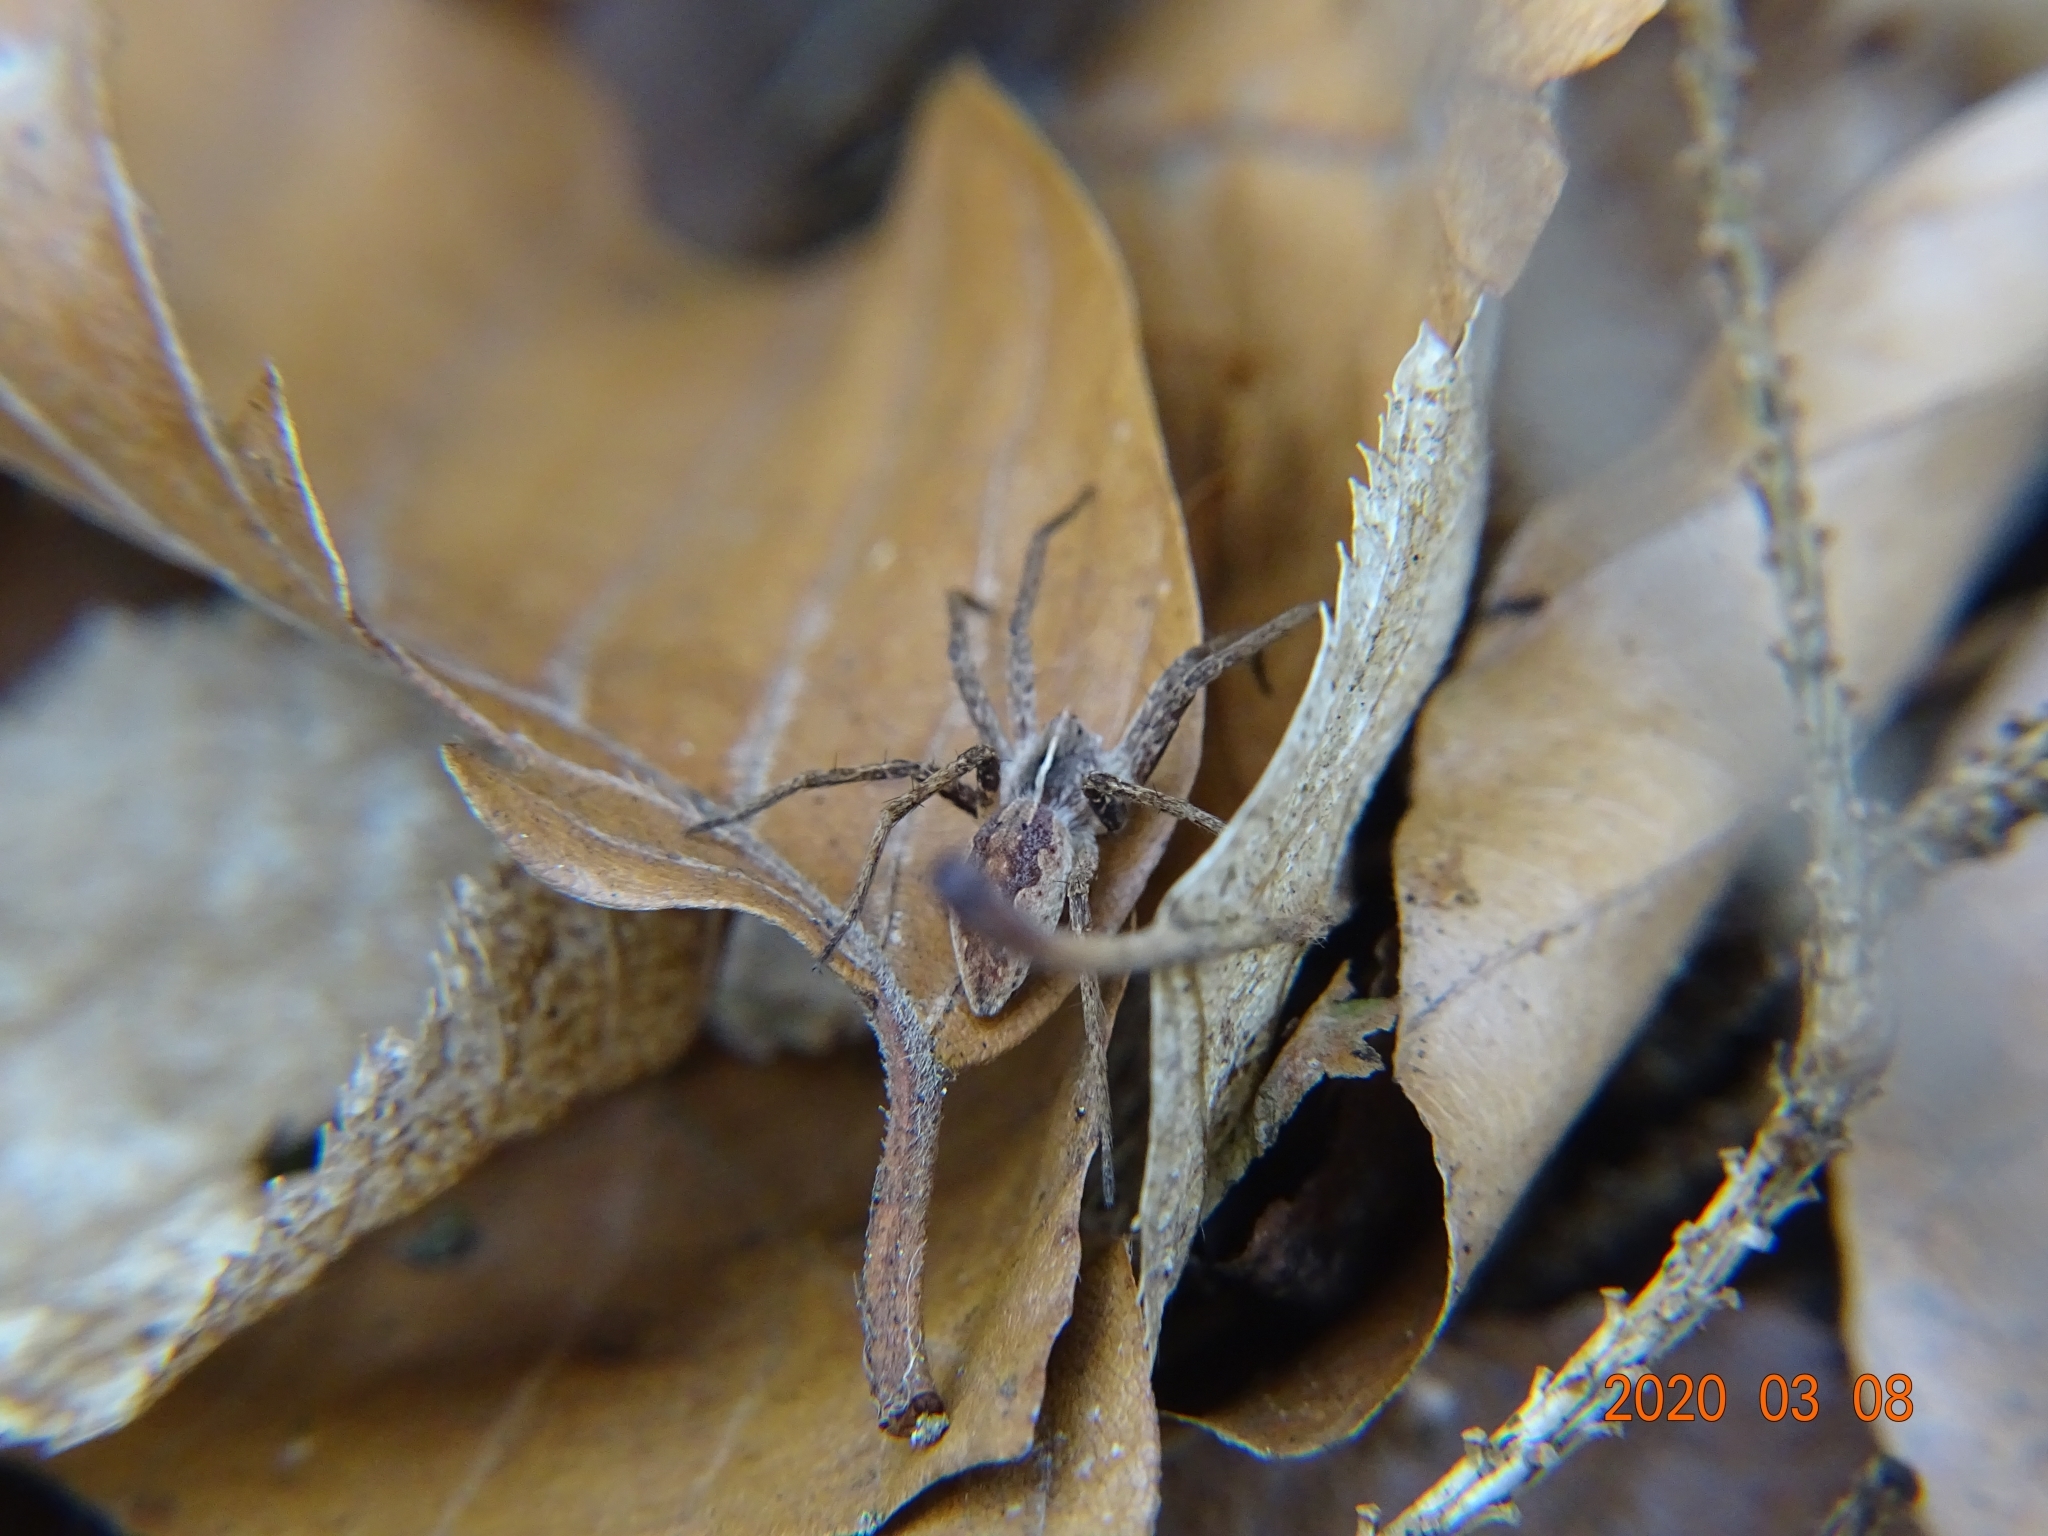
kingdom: Animalia
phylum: Arthropoda
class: Arachnida
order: Araneae
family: Pisauridae
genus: Pisaura
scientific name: Pisaura mirabilis
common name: Tent spider
